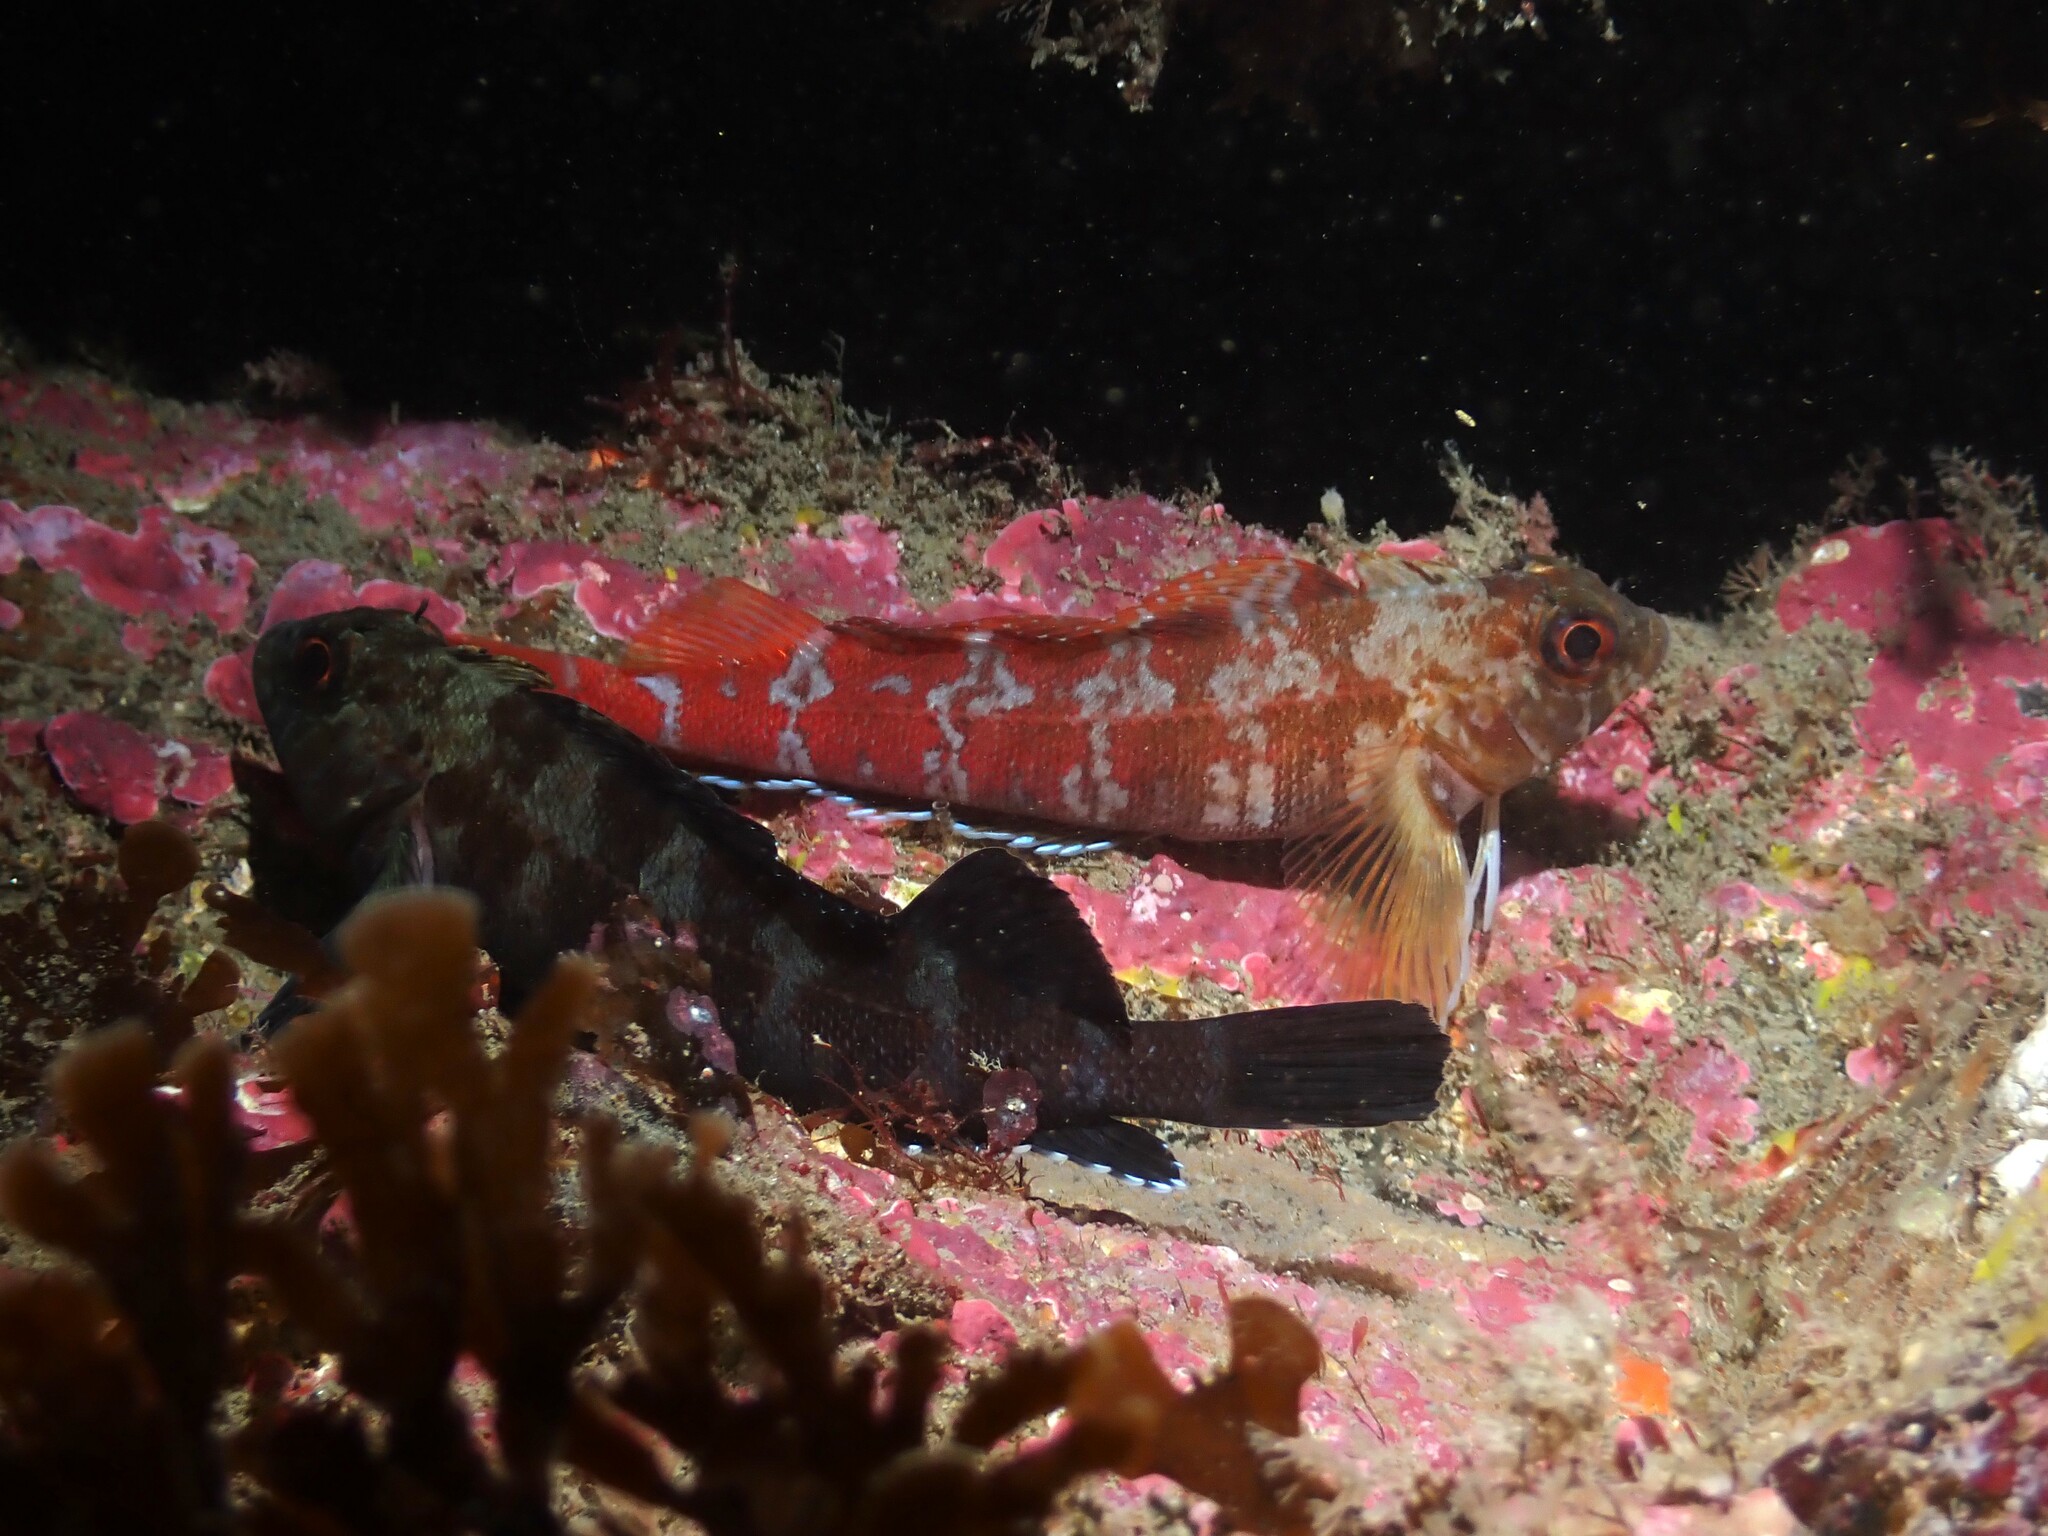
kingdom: Animalia
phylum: Chordata
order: Perciformes
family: Tripterygiidae
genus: Forsterygion
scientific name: Forsterygion malcolmi
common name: Mottled triplefin
